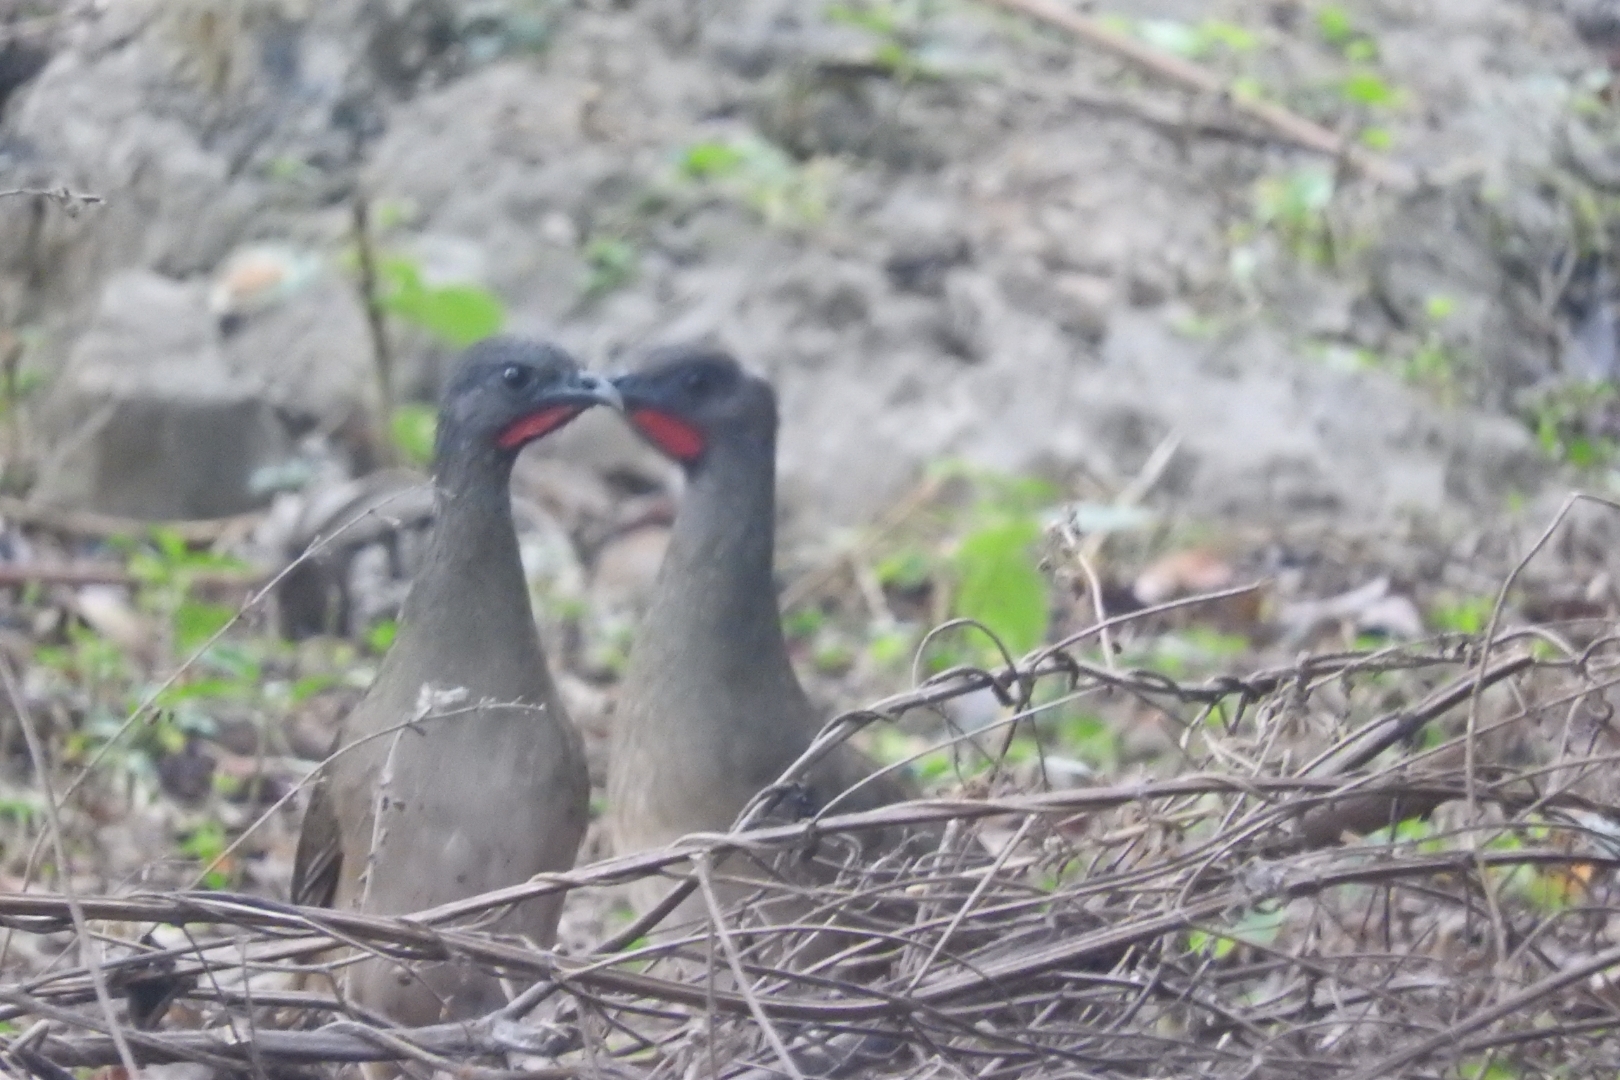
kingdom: Animalia
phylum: Chordata
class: Aves
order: Galliformes
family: Cracidae
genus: Ortalis
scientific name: Ortalis vetula
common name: Plain chachalaca
